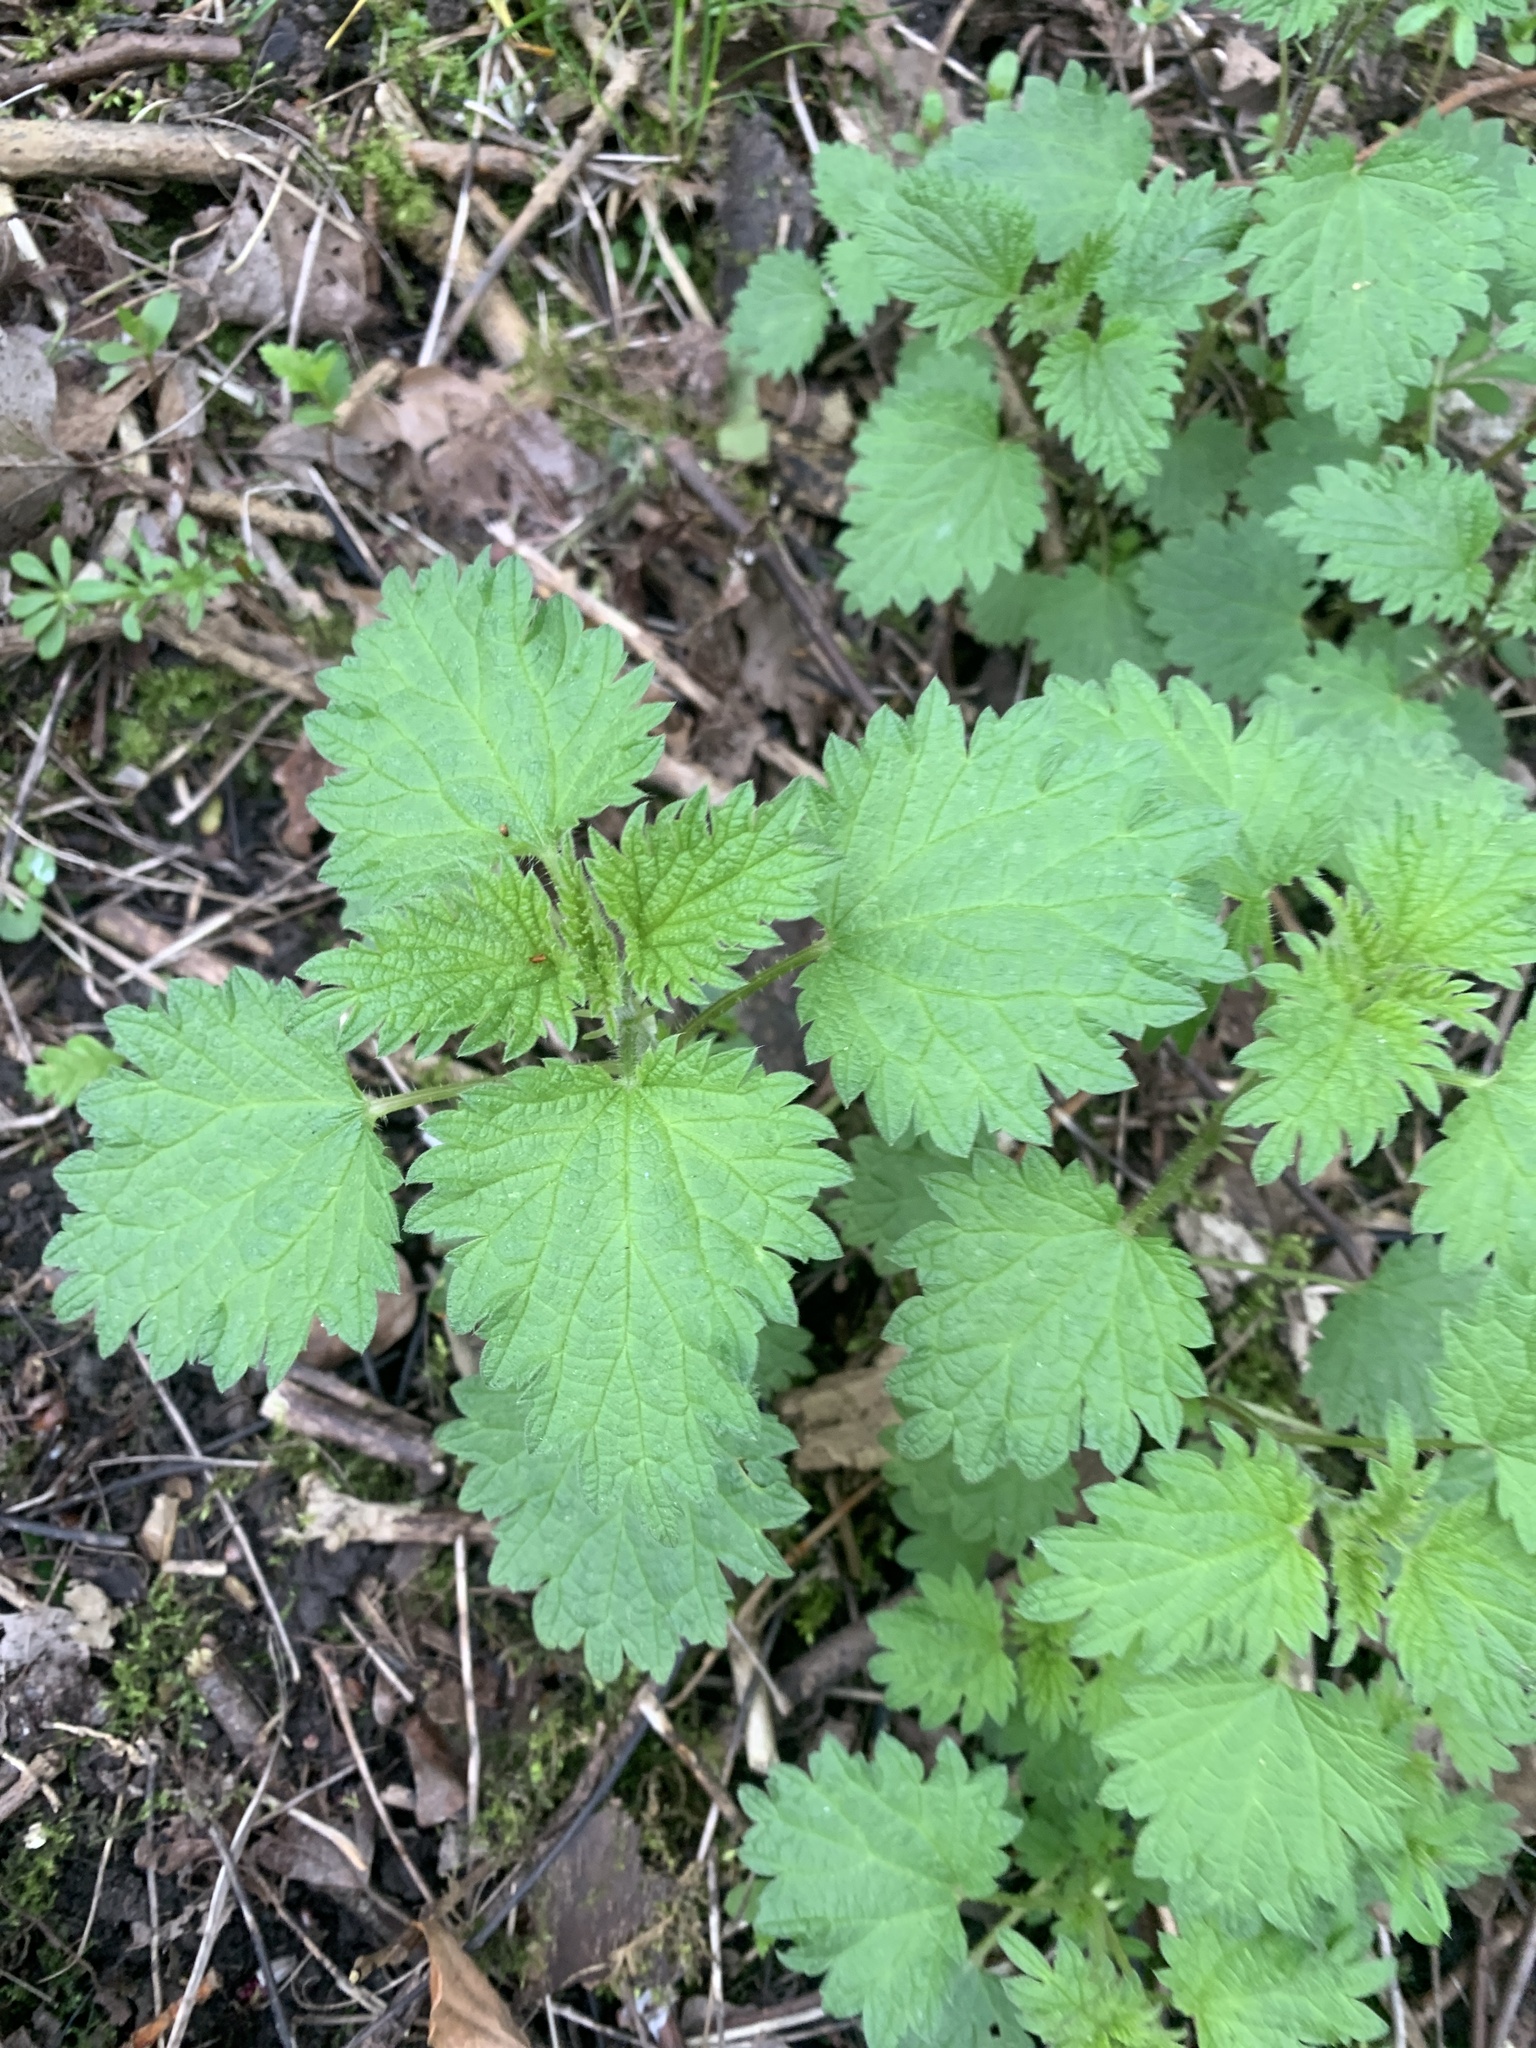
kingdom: Plantae
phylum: Tracheophyta
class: Magnoliopsida
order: Rosales
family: Urticaceae
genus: Urtica
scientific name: Urtica dioica
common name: Common nettle
